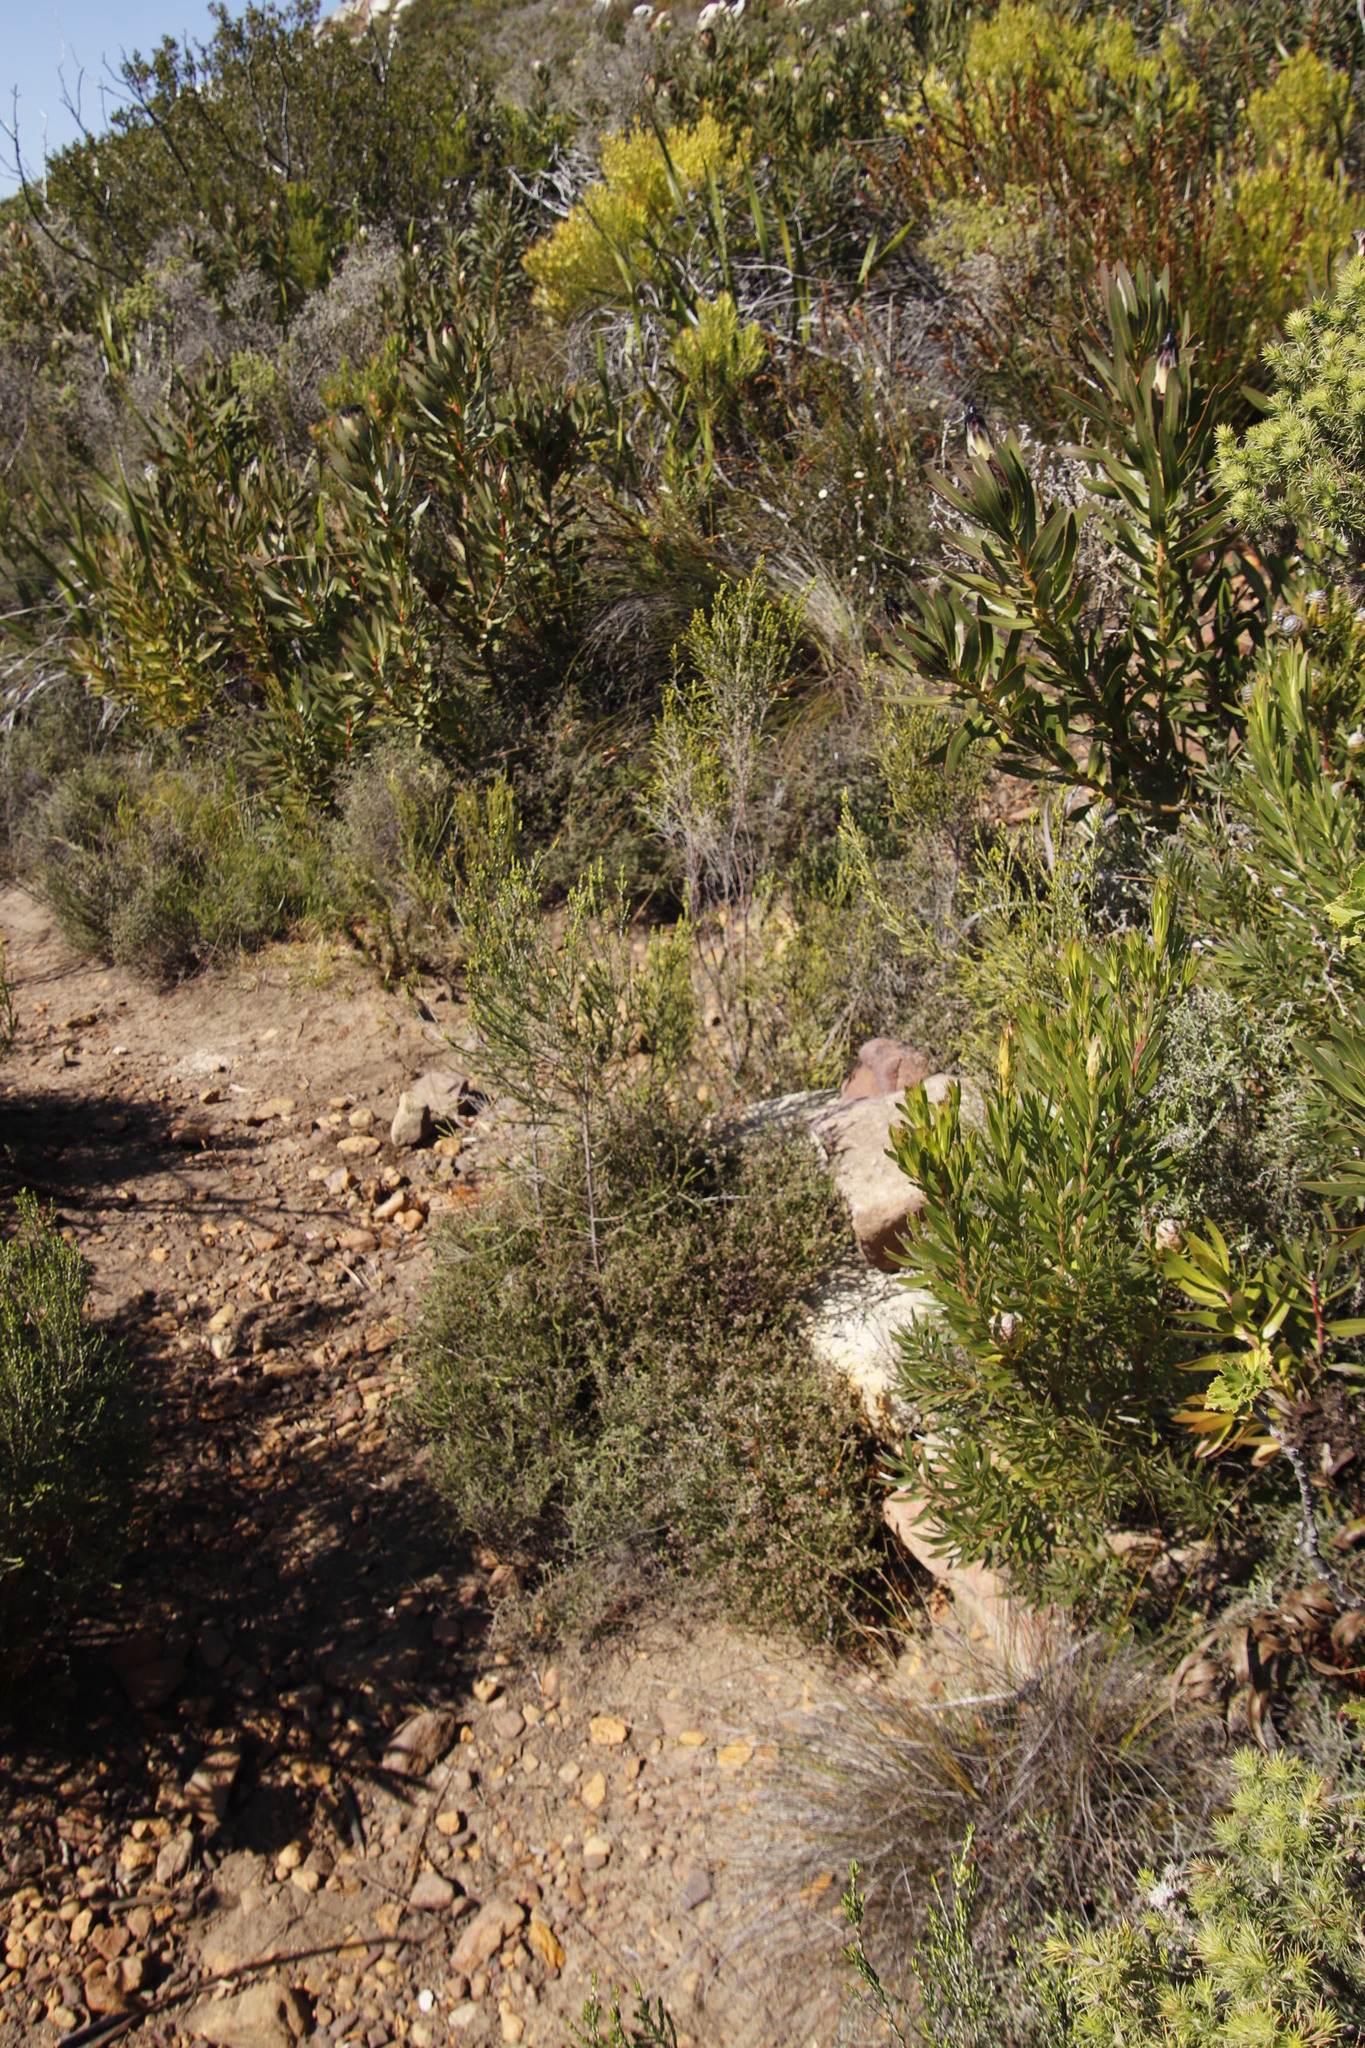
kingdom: Plantae
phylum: Tracheophyta
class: Magnoliopsida
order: Malvales
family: Thymelaeaceae
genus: Passerina
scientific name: Passerina corymbosa
